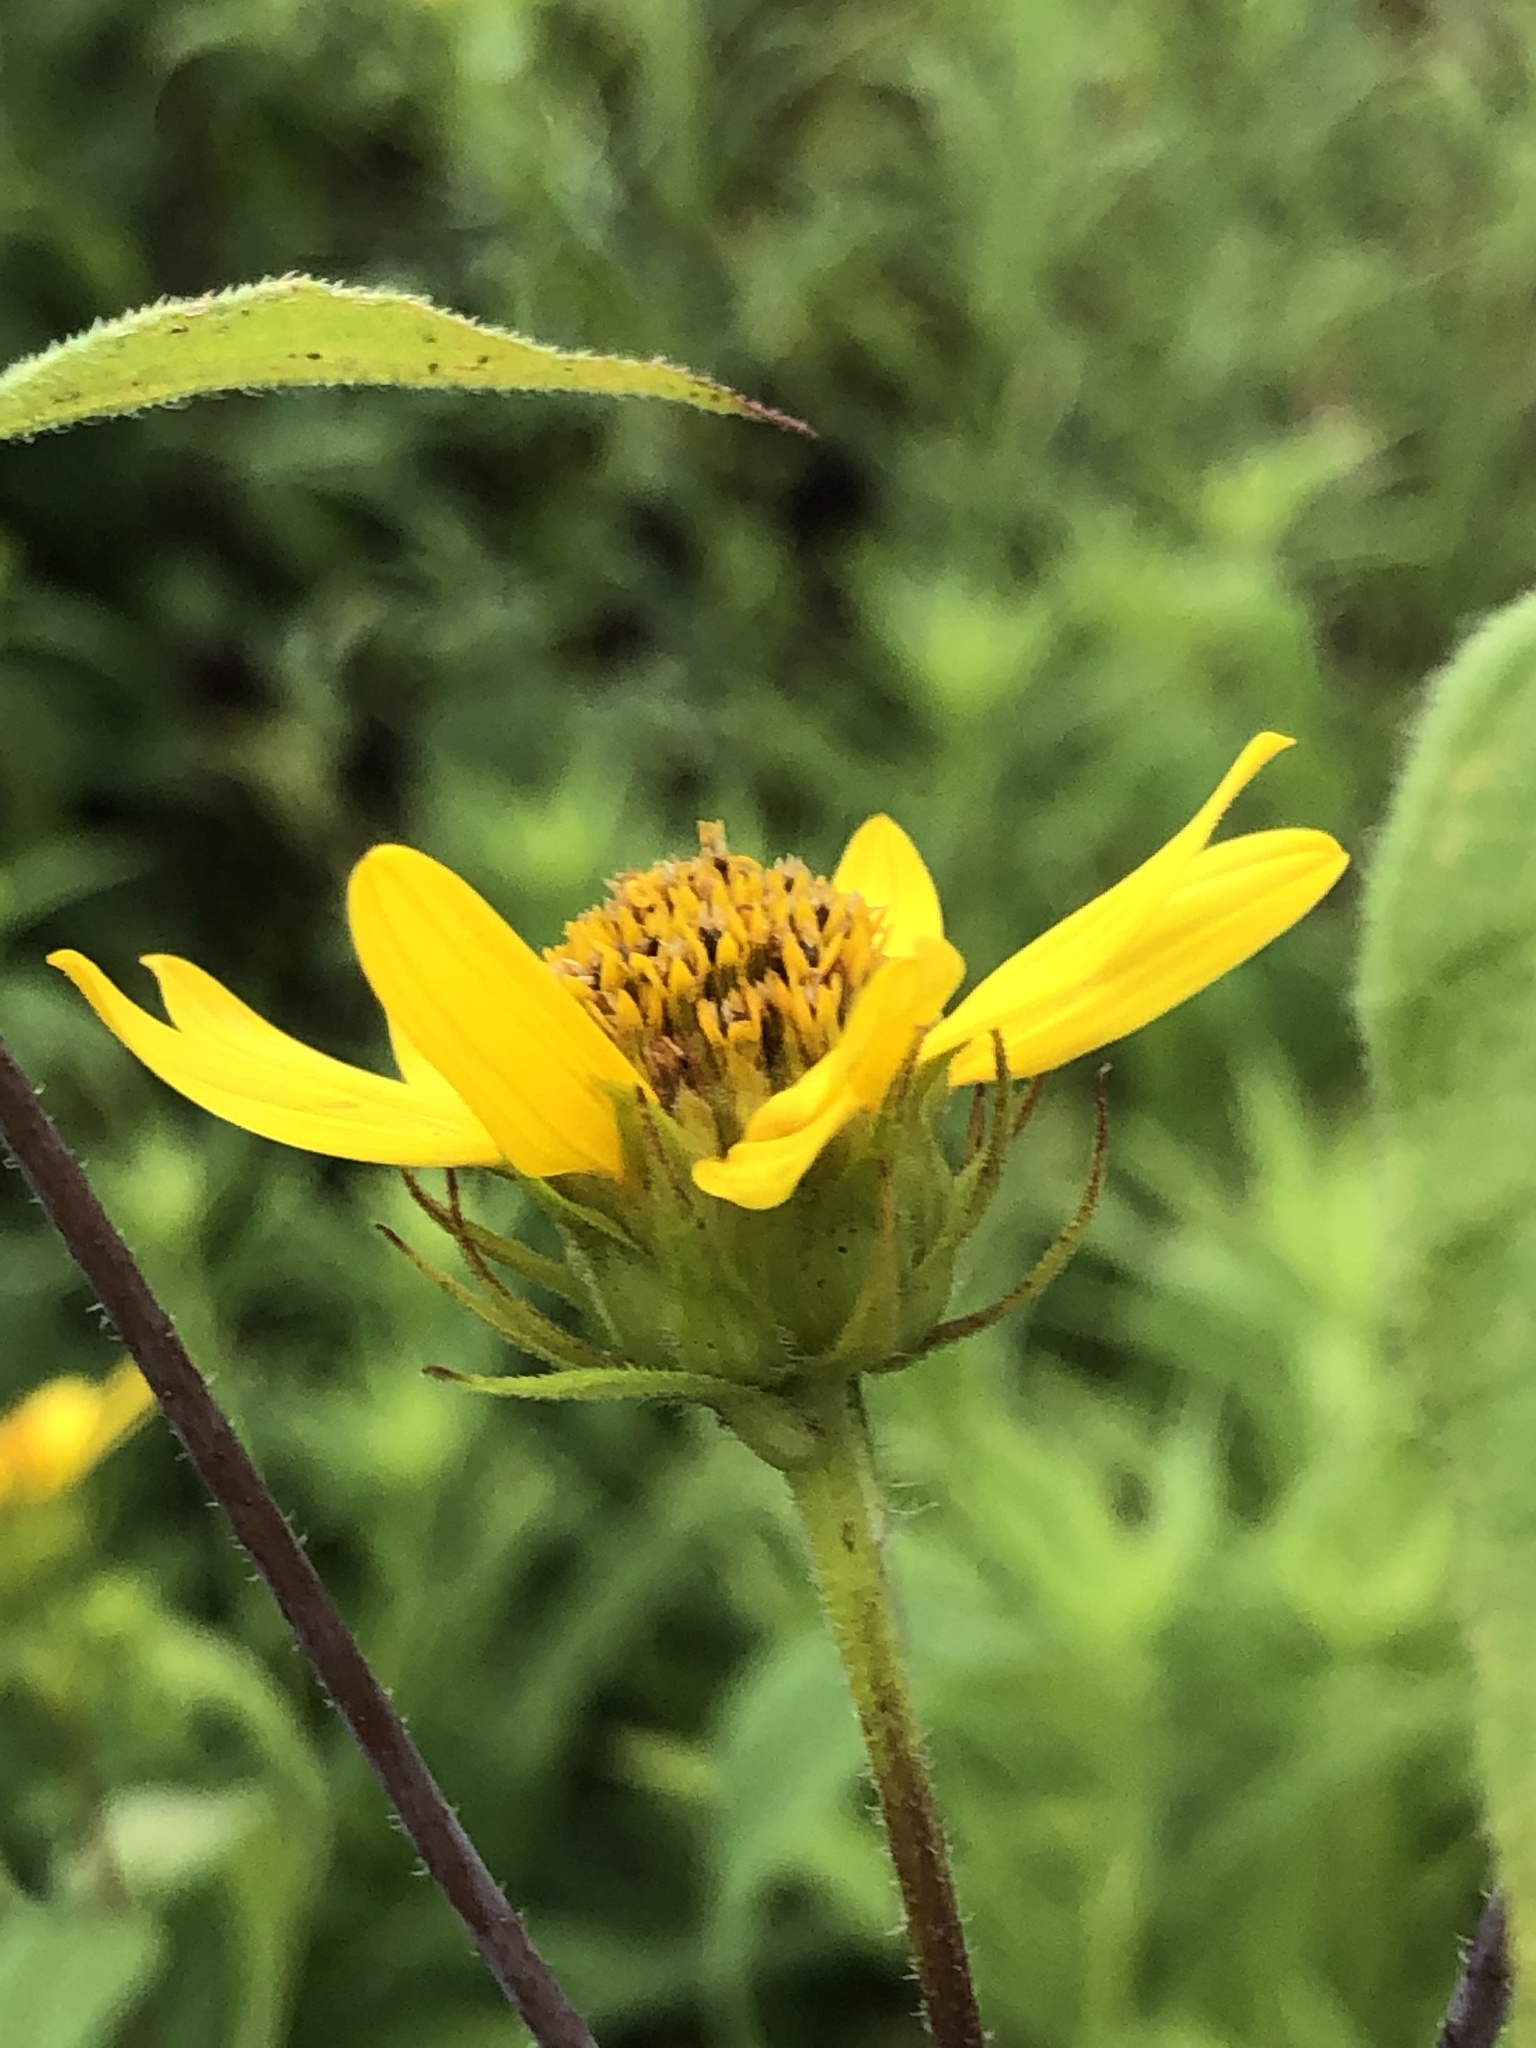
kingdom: Plantae
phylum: Tracheophyta
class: Magnoliopsida
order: Asterales
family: Asteraceae
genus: Helianthus
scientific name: Helianthus divaricatus
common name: Divergent sunflower
